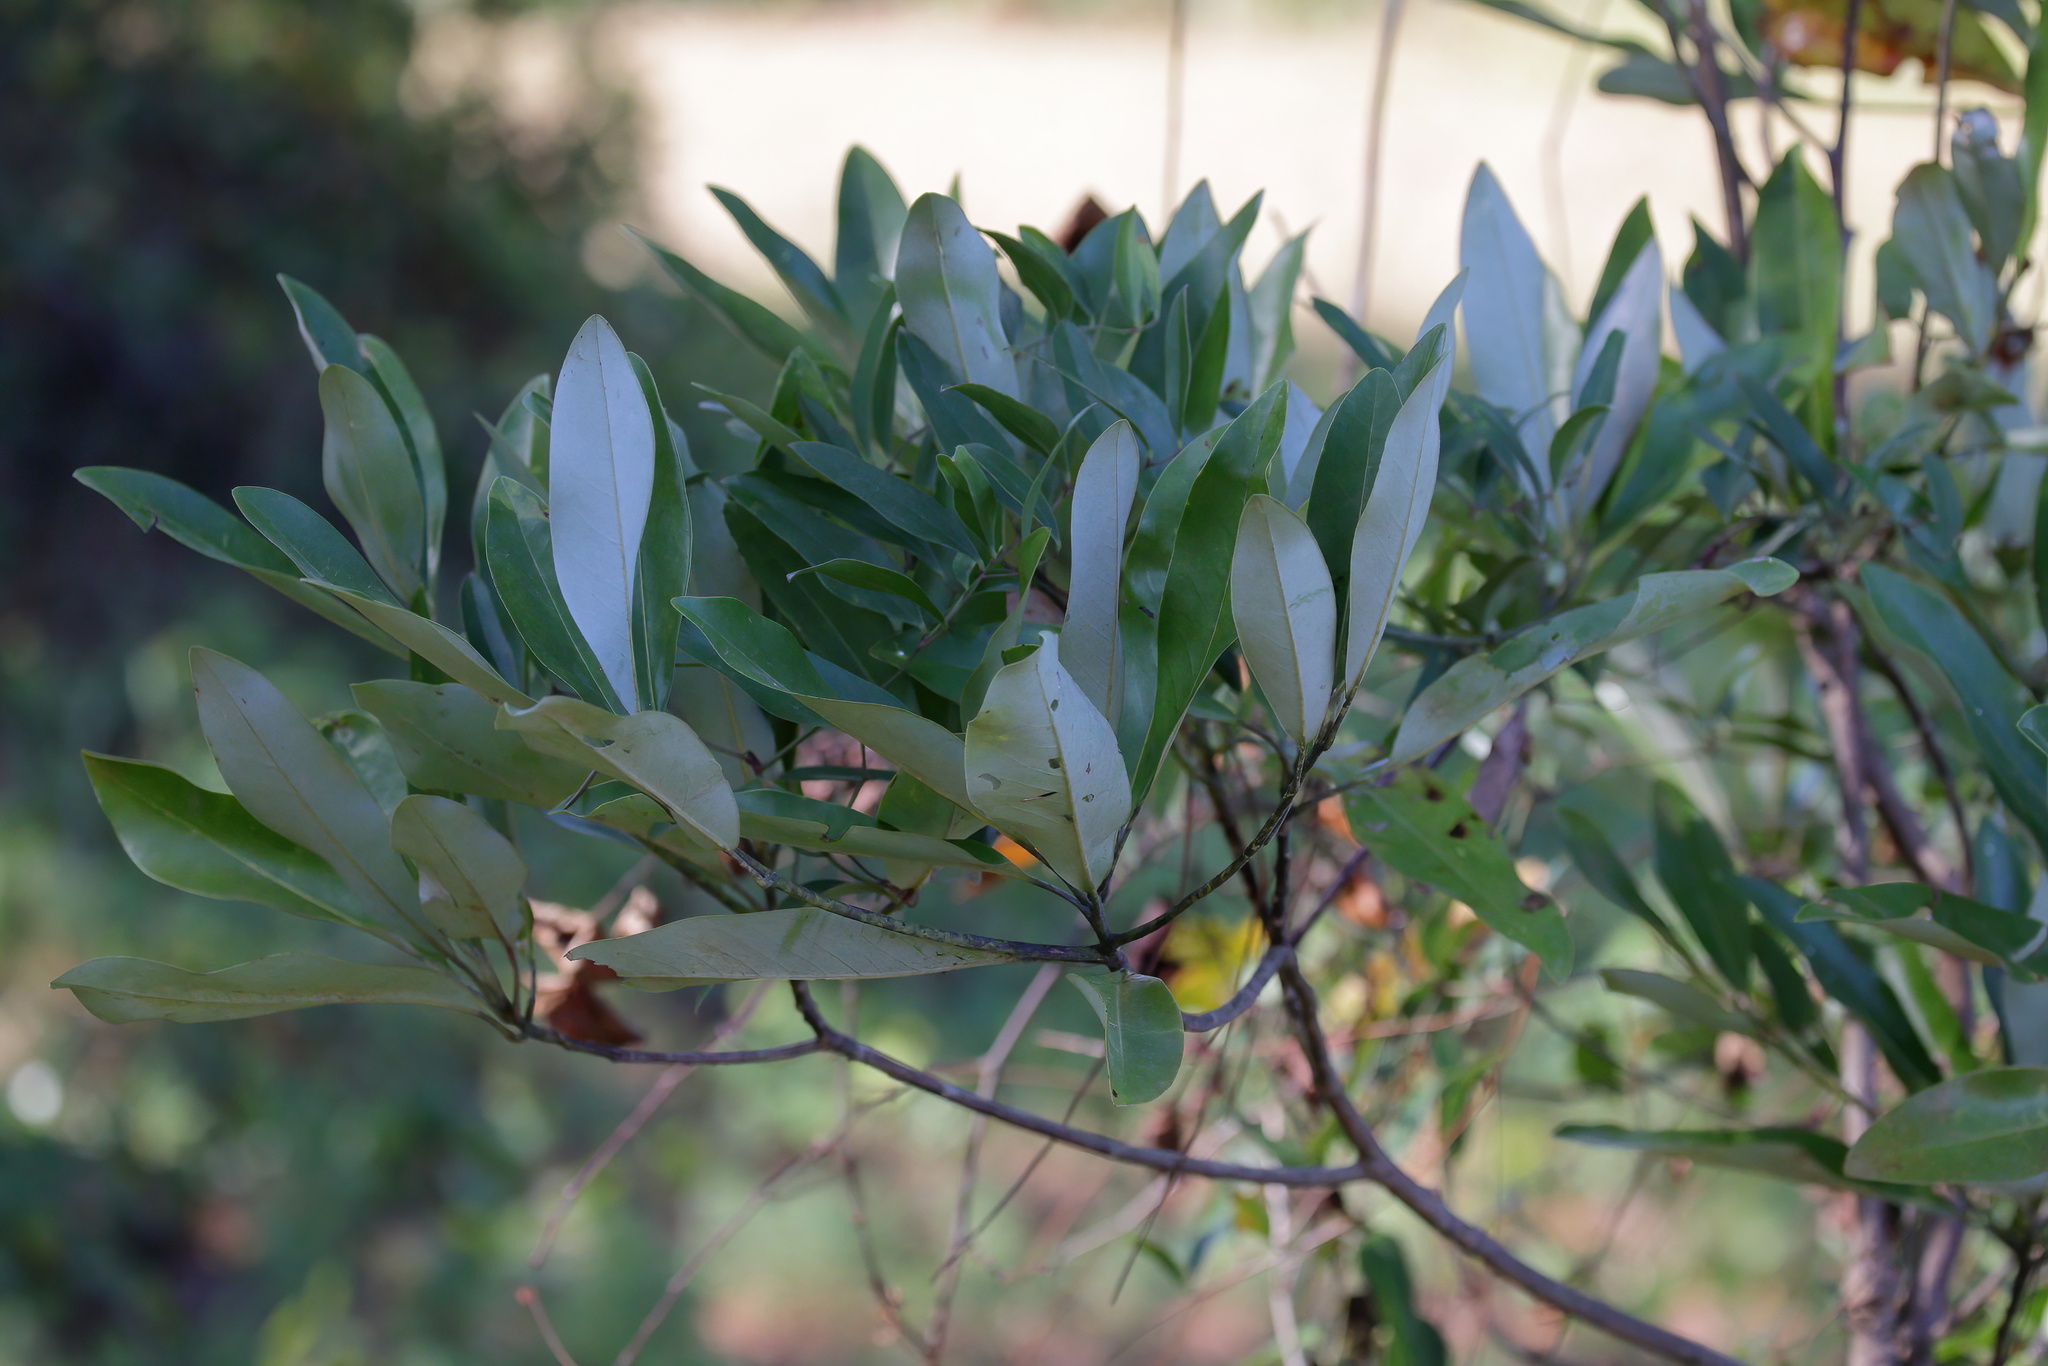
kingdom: Plantae
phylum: Tracheophyta
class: Magnoliopsida
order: Magnoliales
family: Magnoliaceae
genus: Magnolia
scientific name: Magnolia virginiana
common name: Swamp bay
